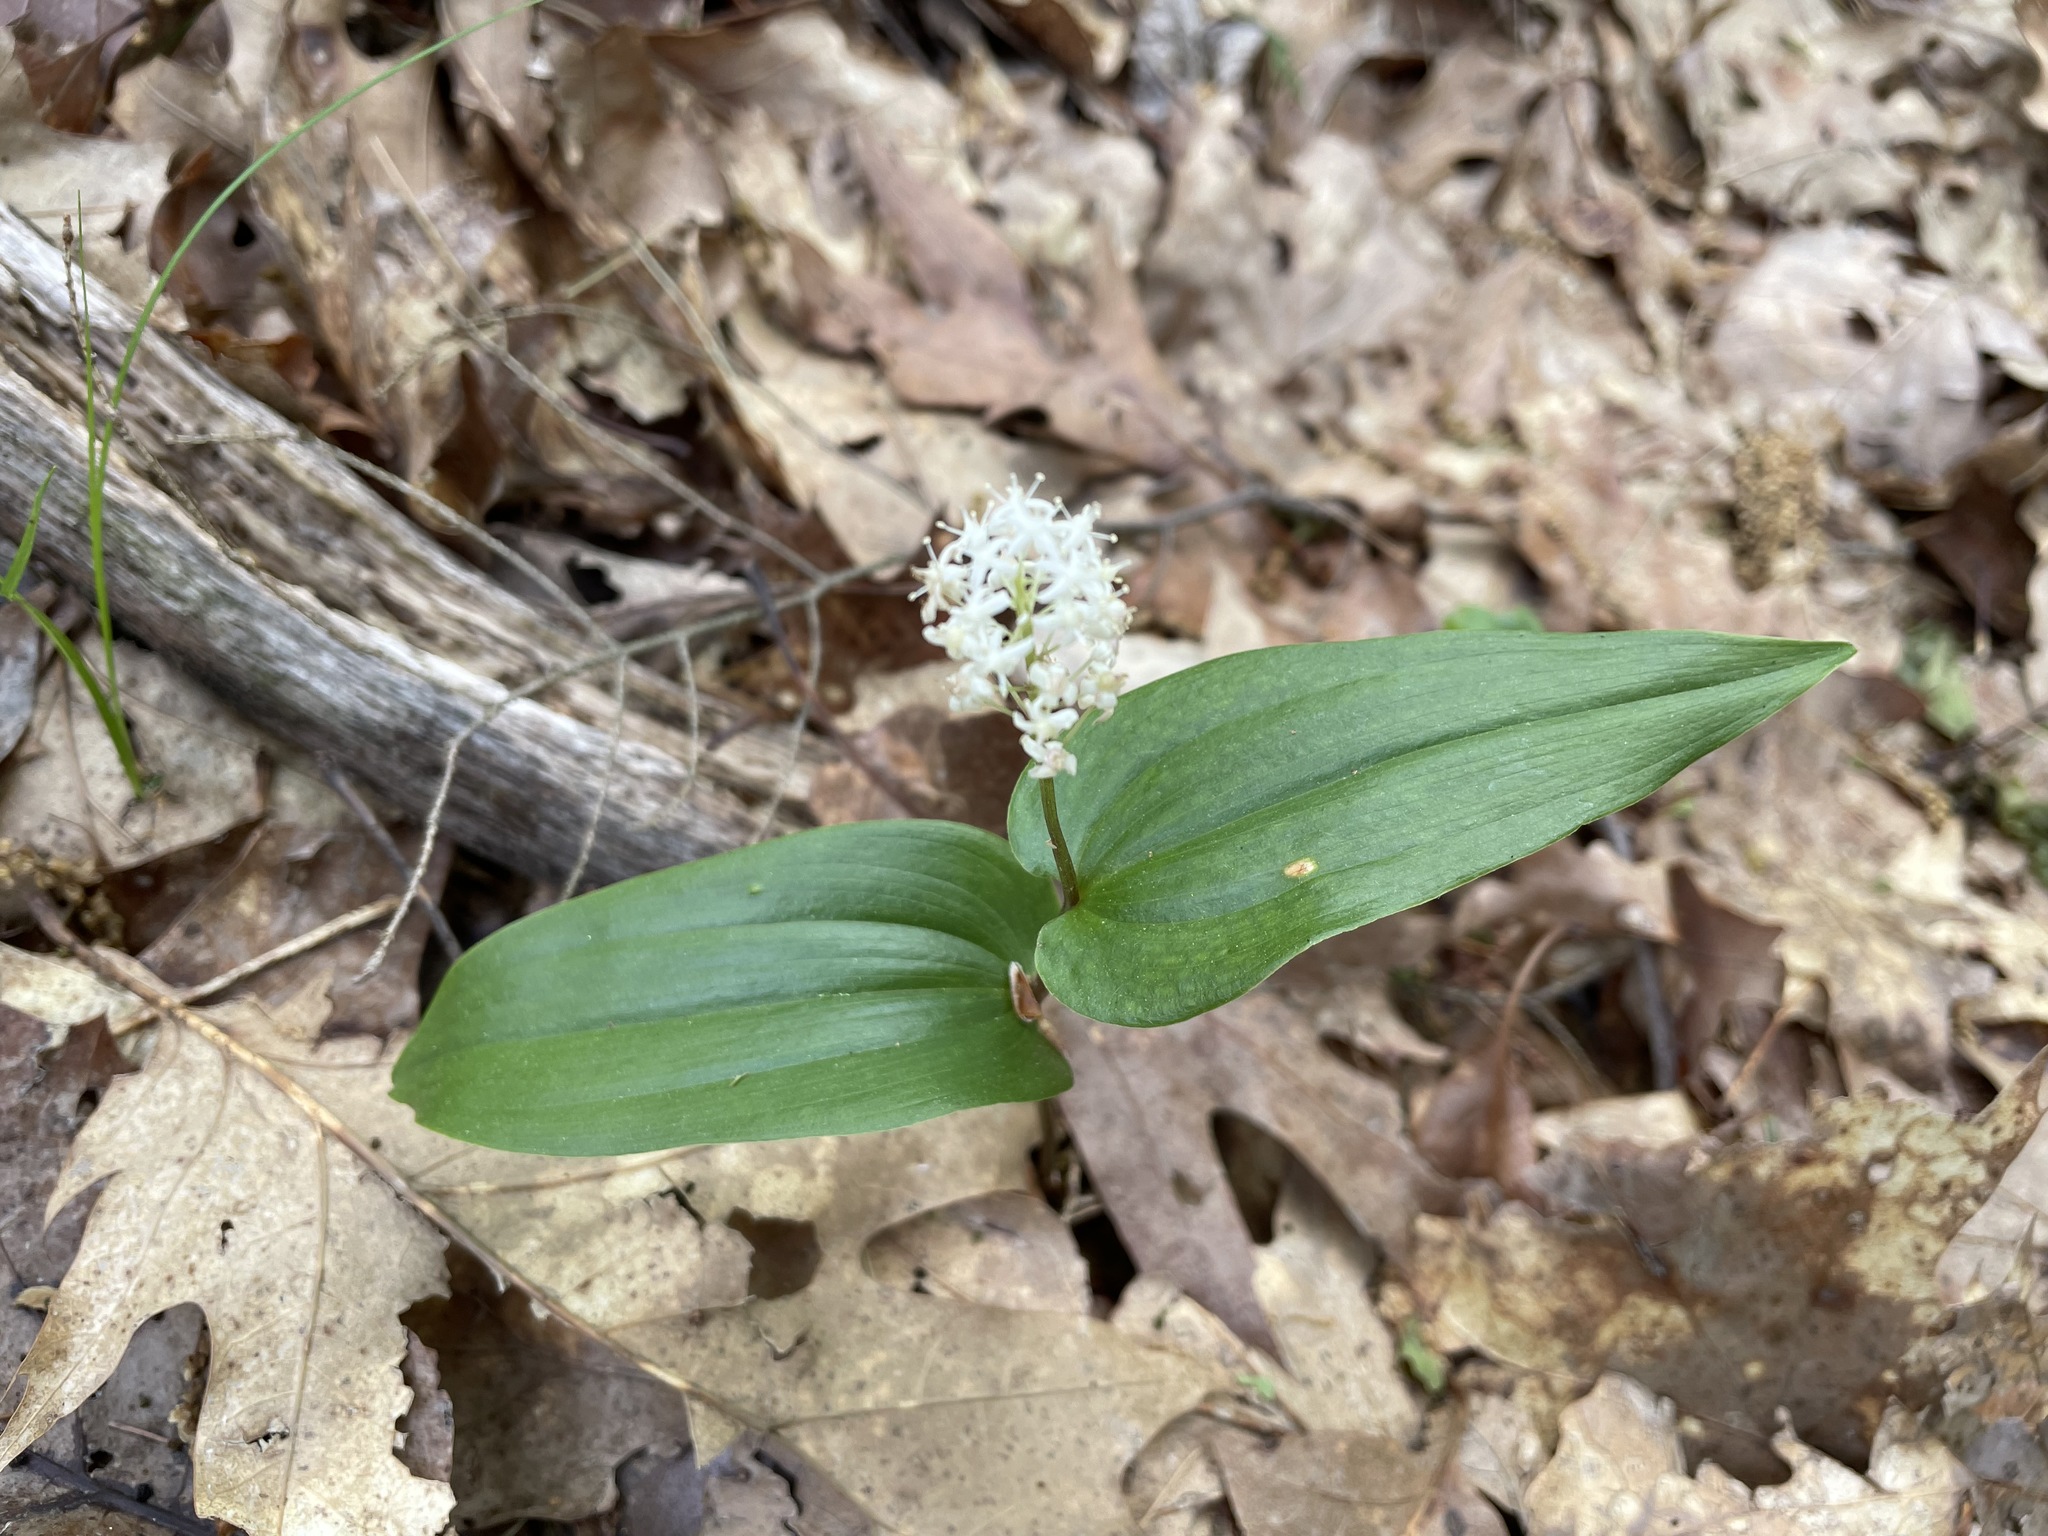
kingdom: Plantae
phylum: Tracheophyta
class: Liliopsida
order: Asparagales
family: Asparagaceae
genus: Maianthemum
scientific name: Maianthemum canadense
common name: False lily-of-the-valley
